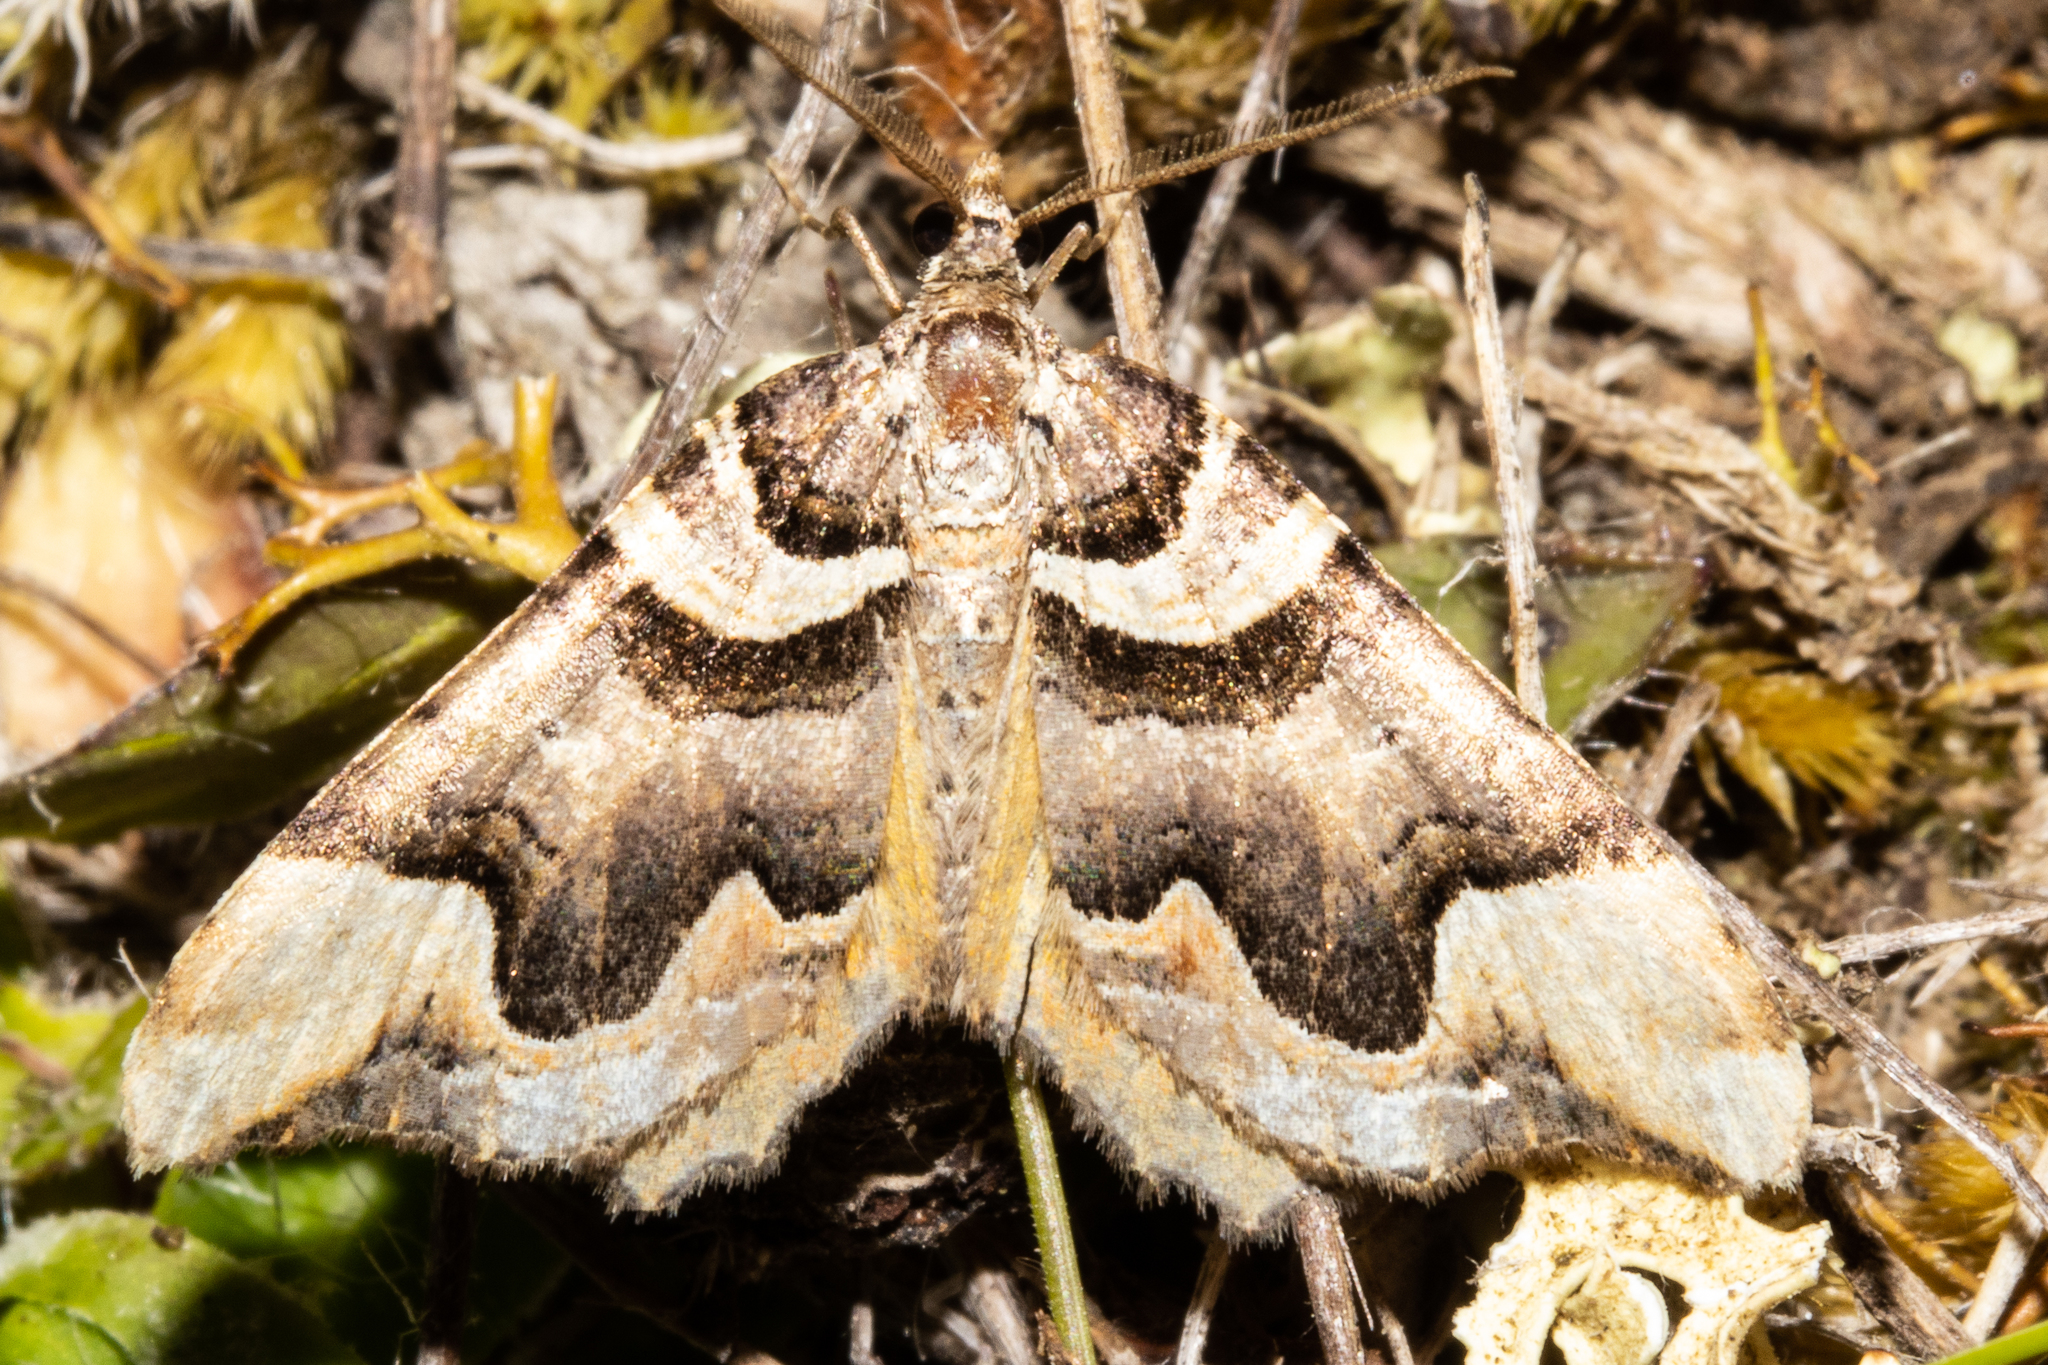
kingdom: Animalia
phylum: Arthropoda
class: Insecta
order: Lepidoptera
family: Geometridae
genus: Asaphodes
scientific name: Asaphodes chlamydota
